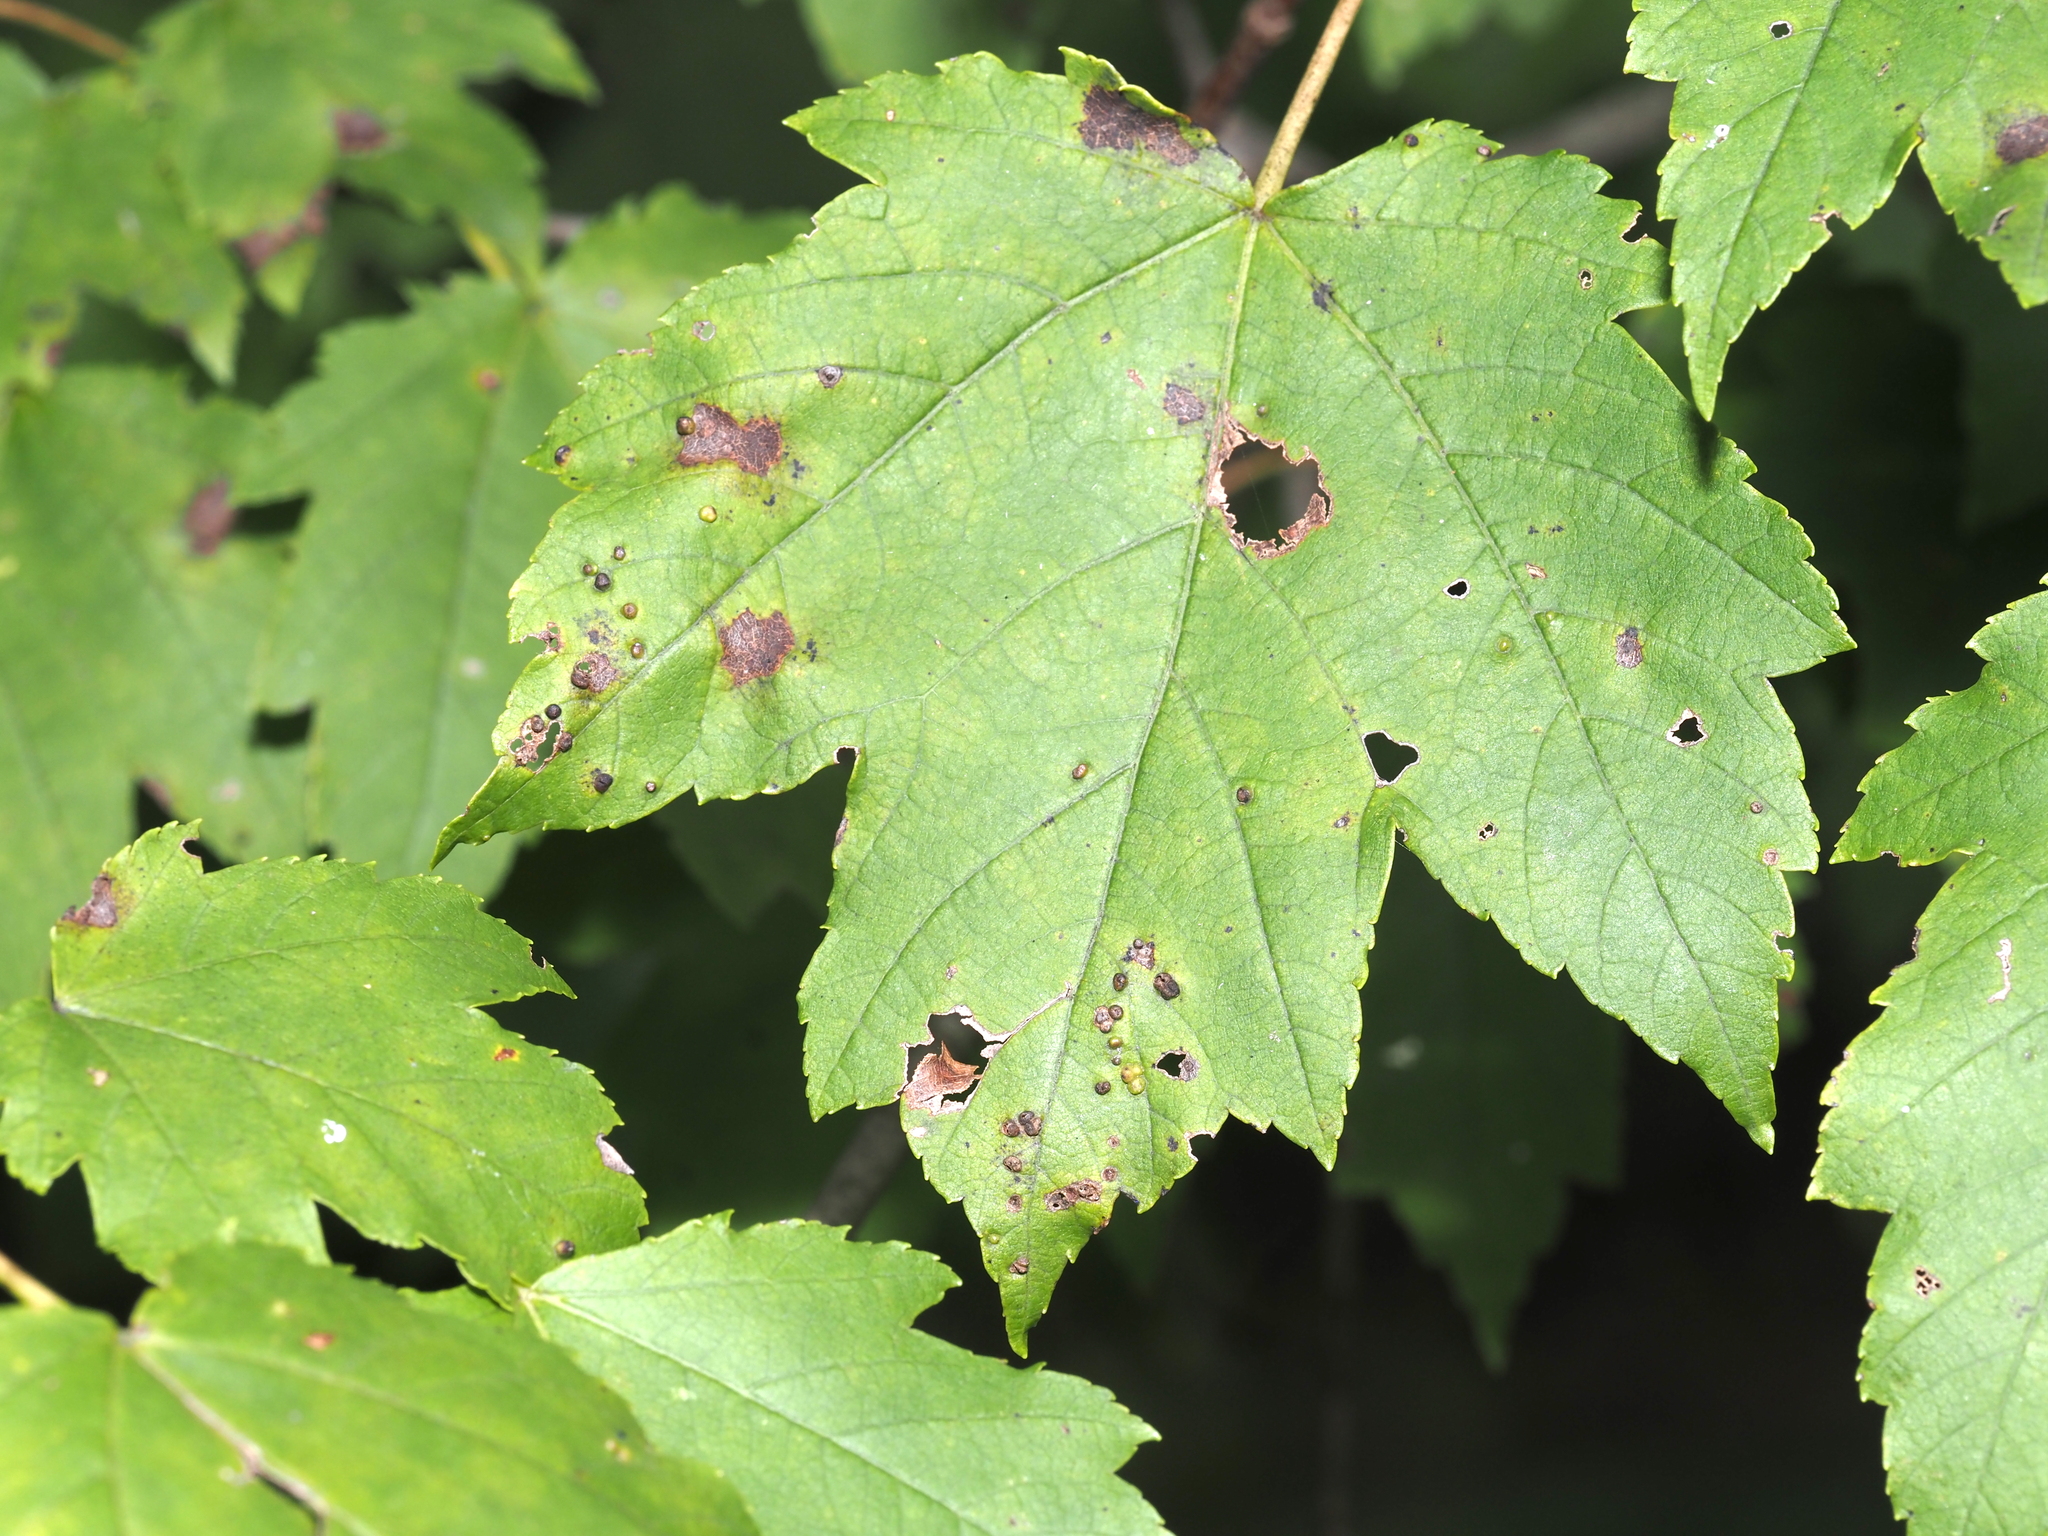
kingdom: Animalia
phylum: Arthropoda
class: Arachnida
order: Trombidiformes
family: Eriophyidae
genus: Vasates
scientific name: Vasates quadripedes
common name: Maple bladder gall mite
